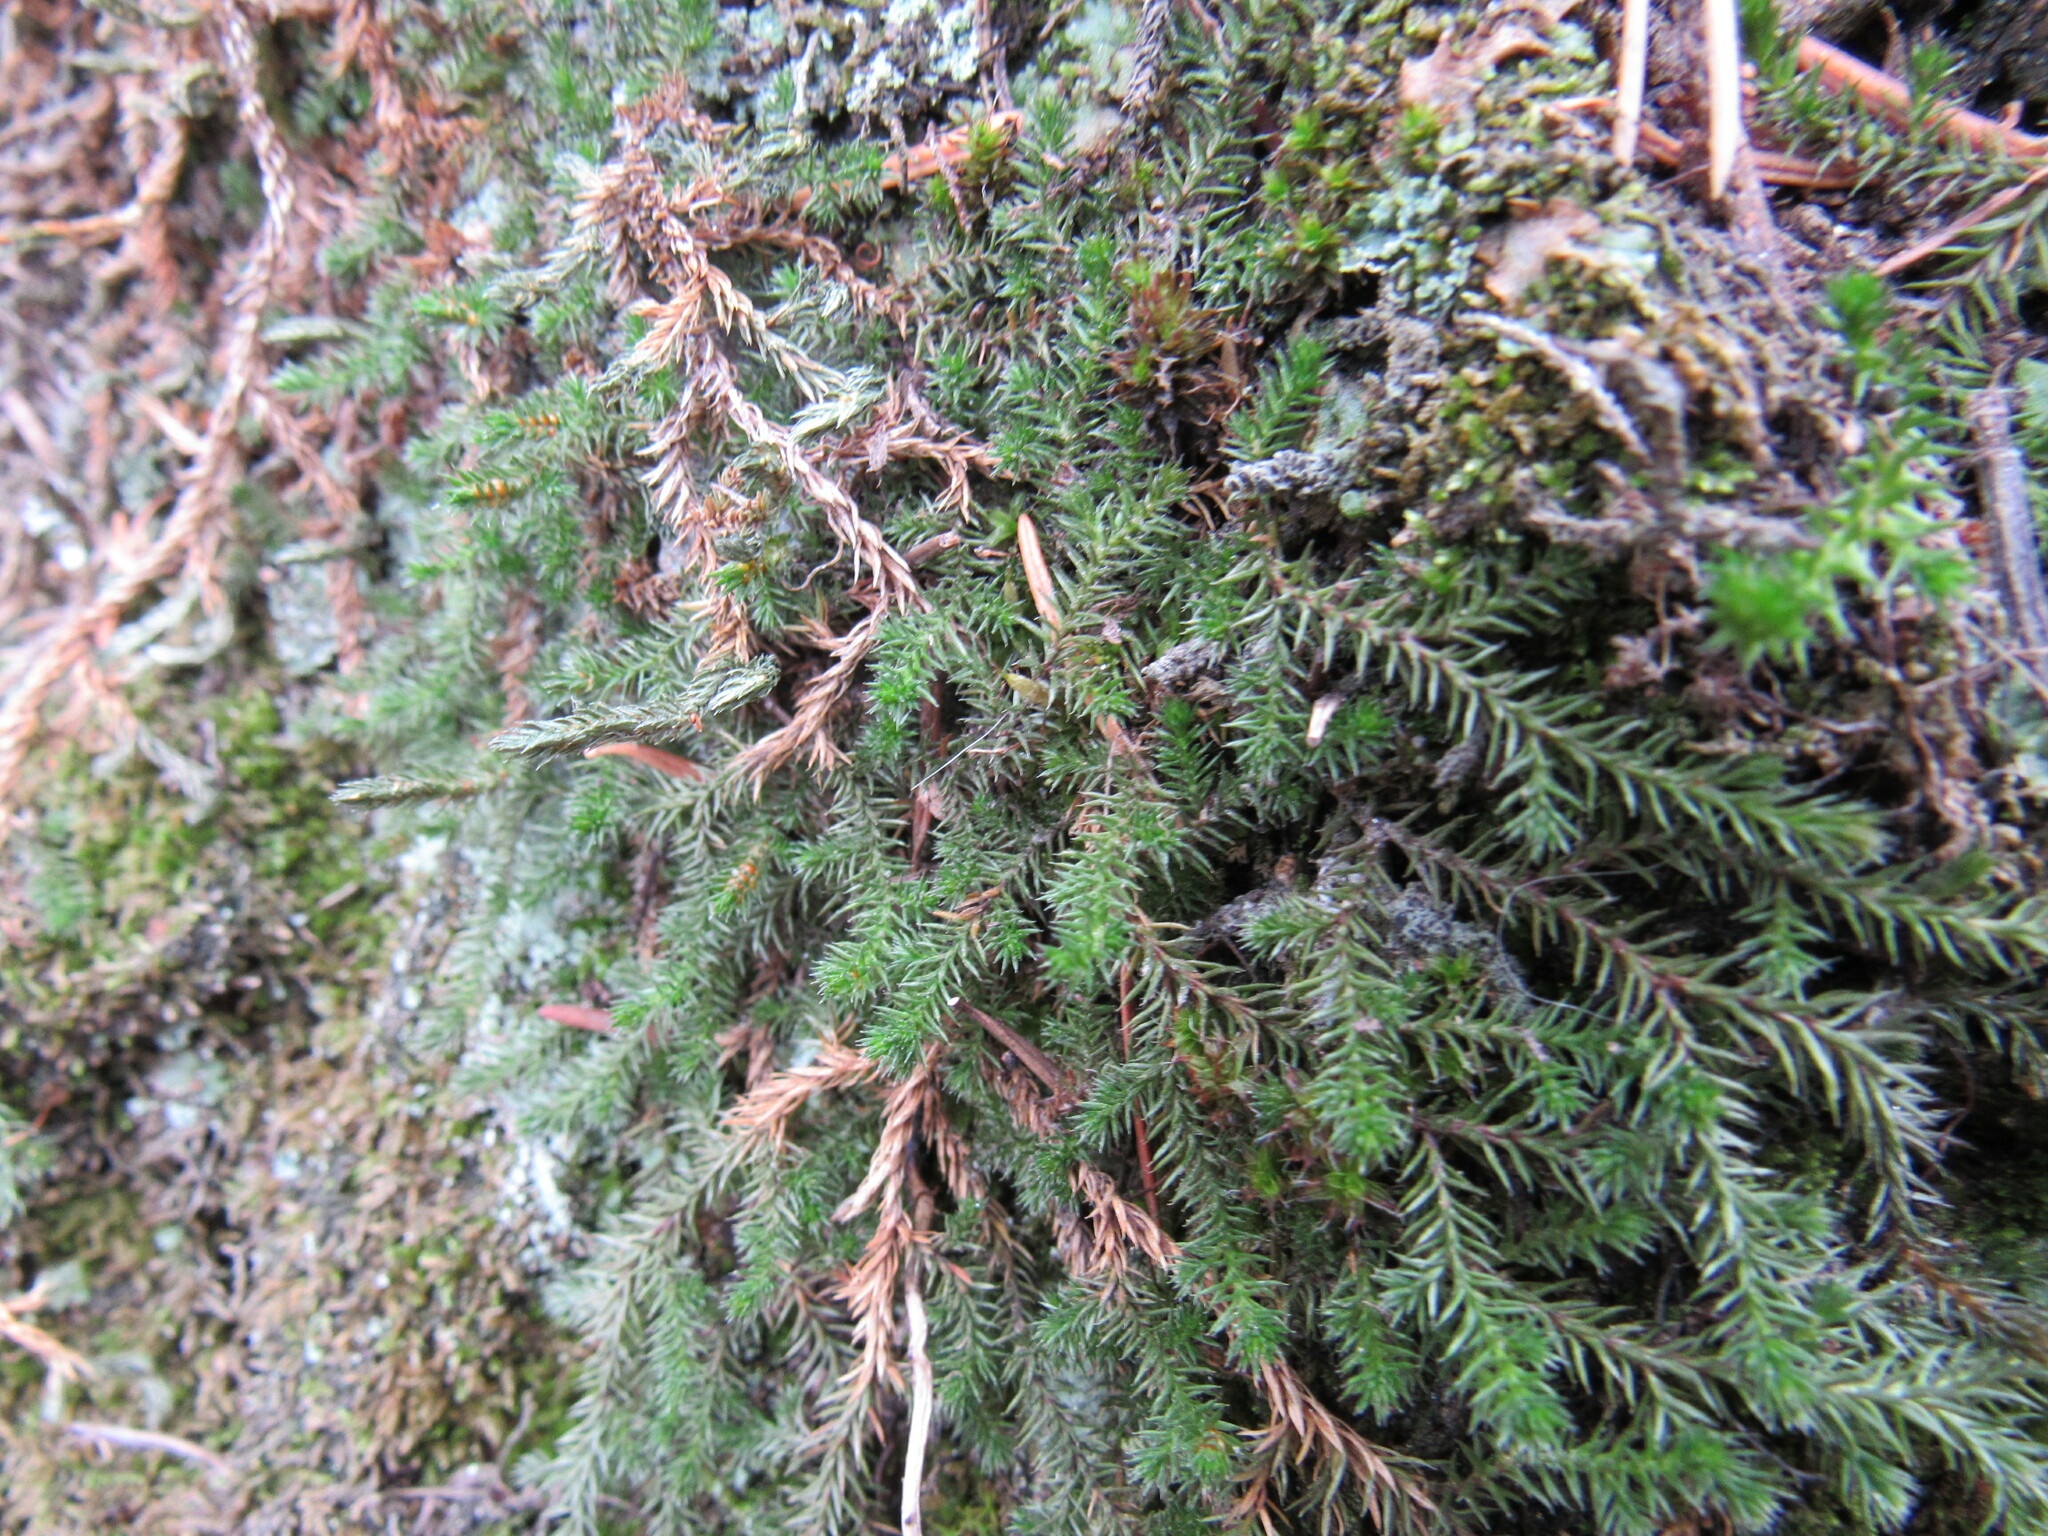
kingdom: Plantae
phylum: Tracheophyta
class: Lycopodiopsida
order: Selaginellales
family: Selaginellaceae
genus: Selaginella
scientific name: Selaginella underwoodii
